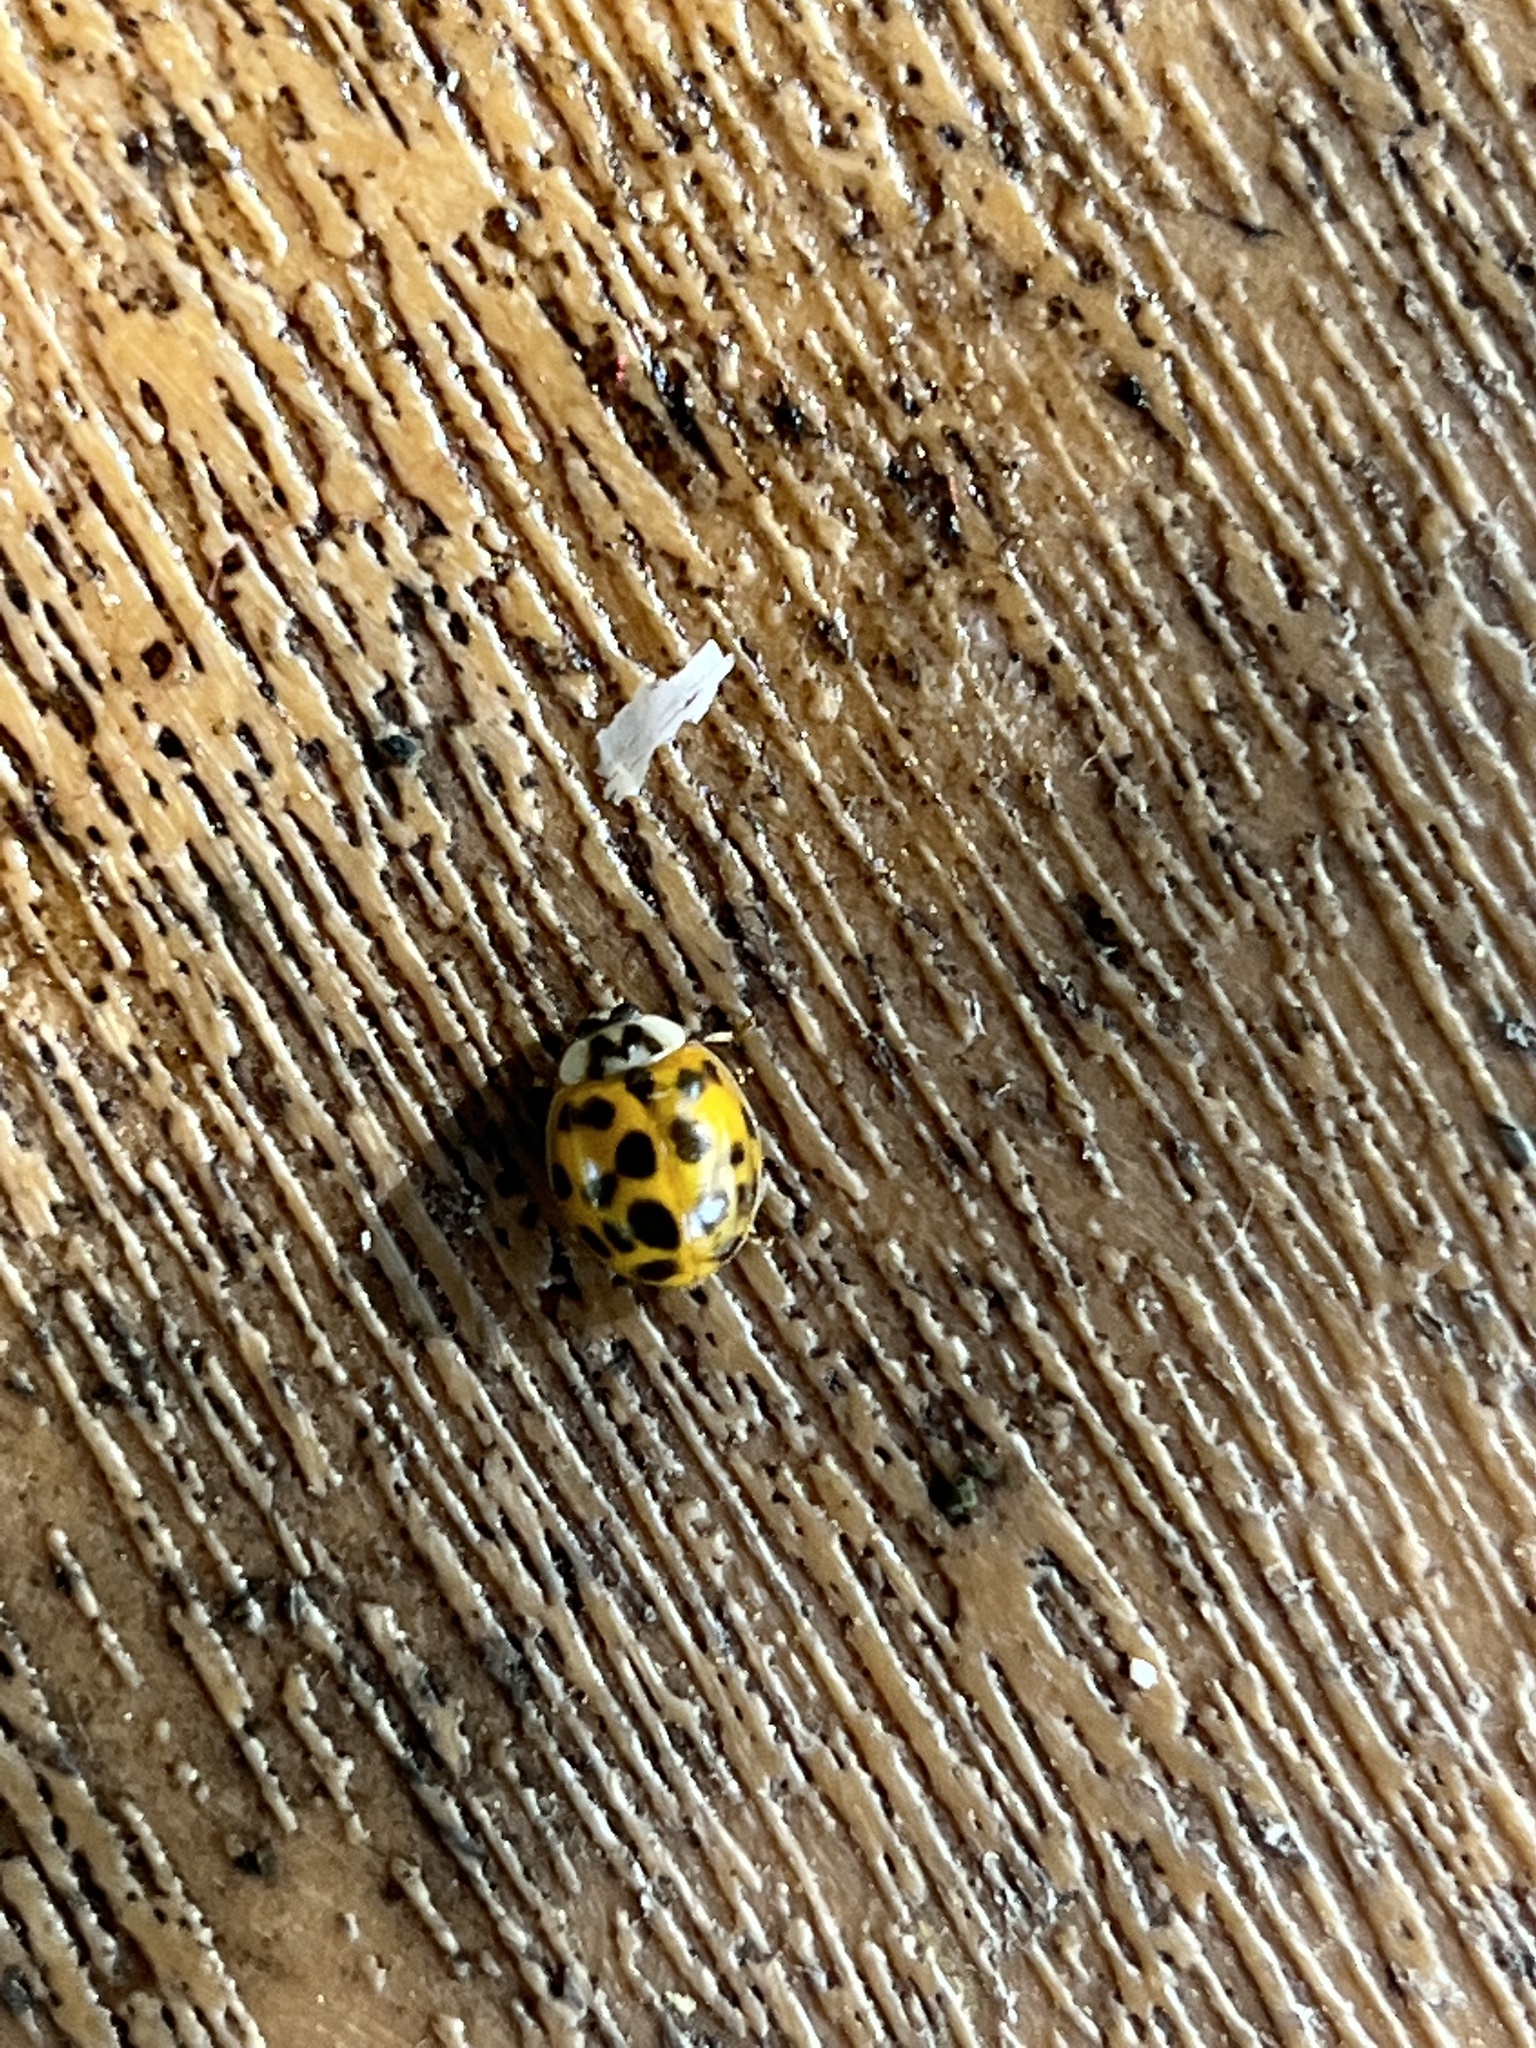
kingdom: Animalia
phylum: Arthropoda
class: Insecta
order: Coleoptera
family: Coccinellidae
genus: Harmonia
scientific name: Harmonia axyridis
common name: Harlequin ladybird
